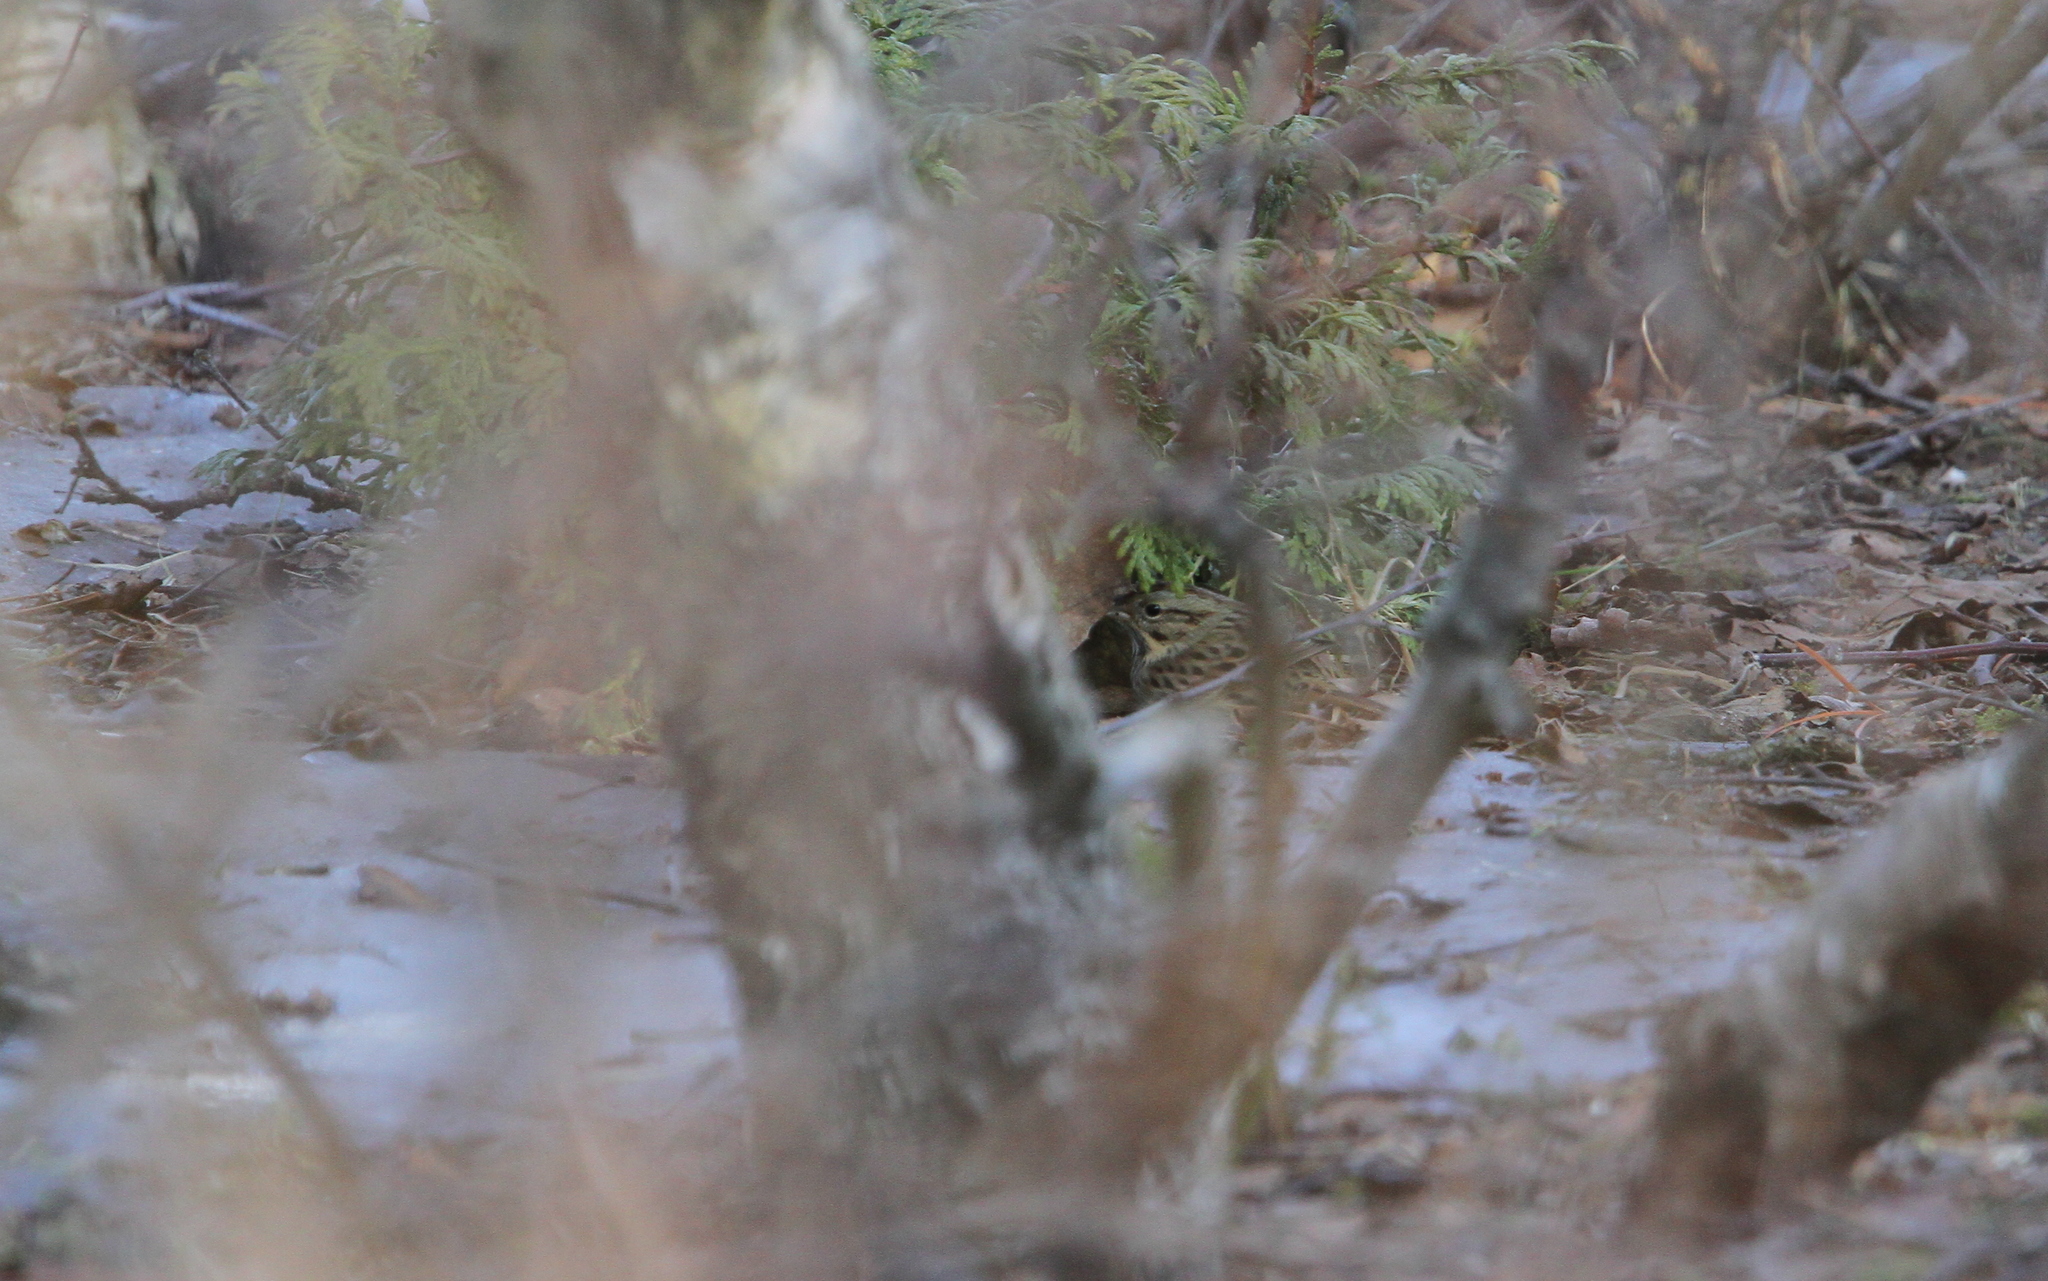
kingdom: Animalia
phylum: Chordata
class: Aves
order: Passeriformes
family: Passerellidae
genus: Melospiza
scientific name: Melospiza lincolnii
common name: Lincoln's sparrow
